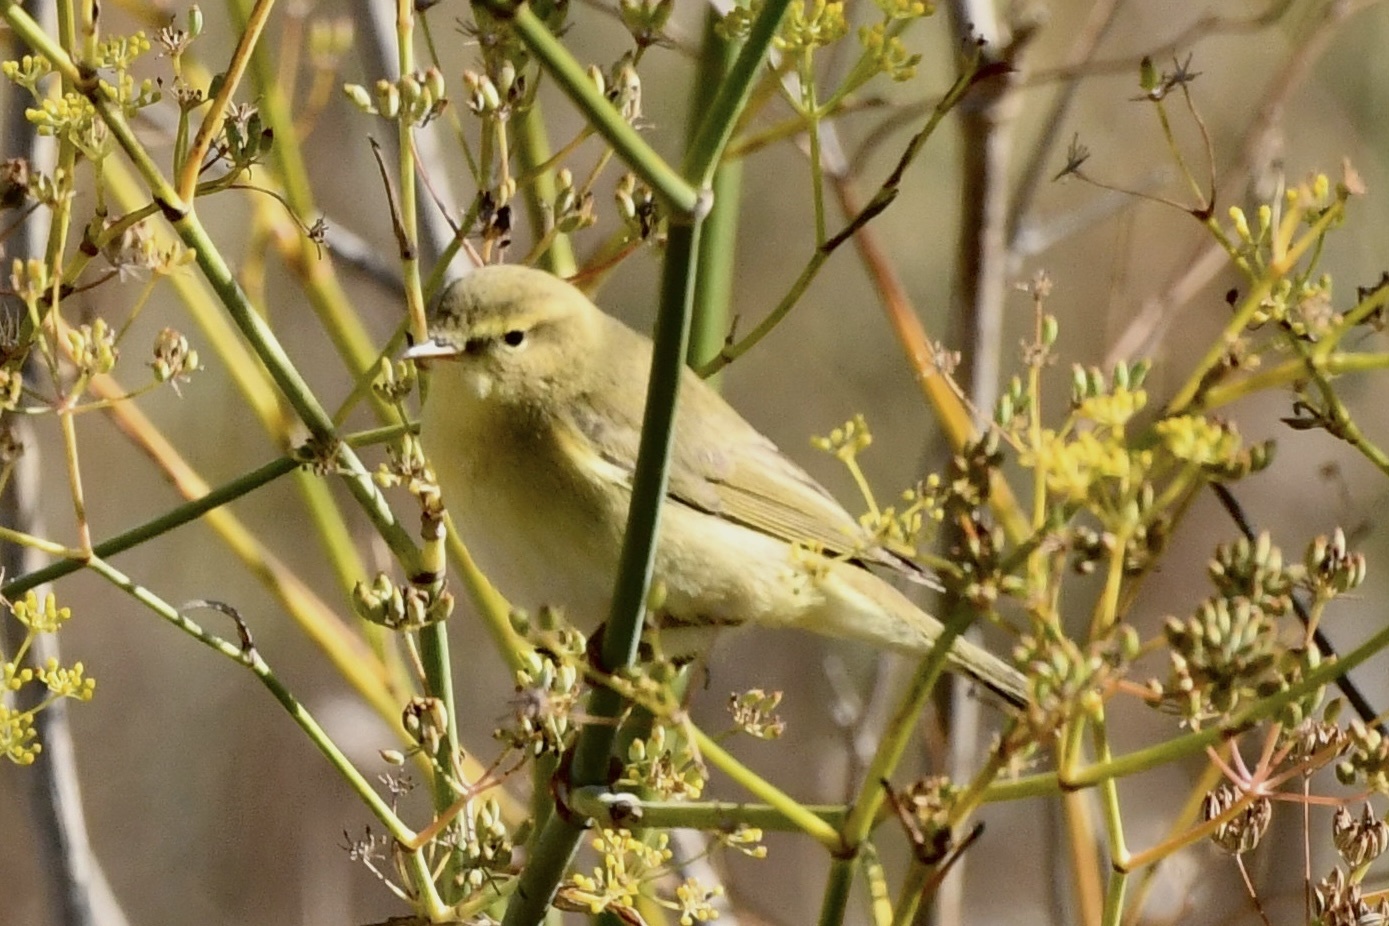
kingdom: Animalia
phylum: Chordata
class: Aves
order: Passeriformes
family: Phylloscopidae
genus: Phylloscopus
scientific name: Phylloscopus trochilus
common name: Willow warbler
